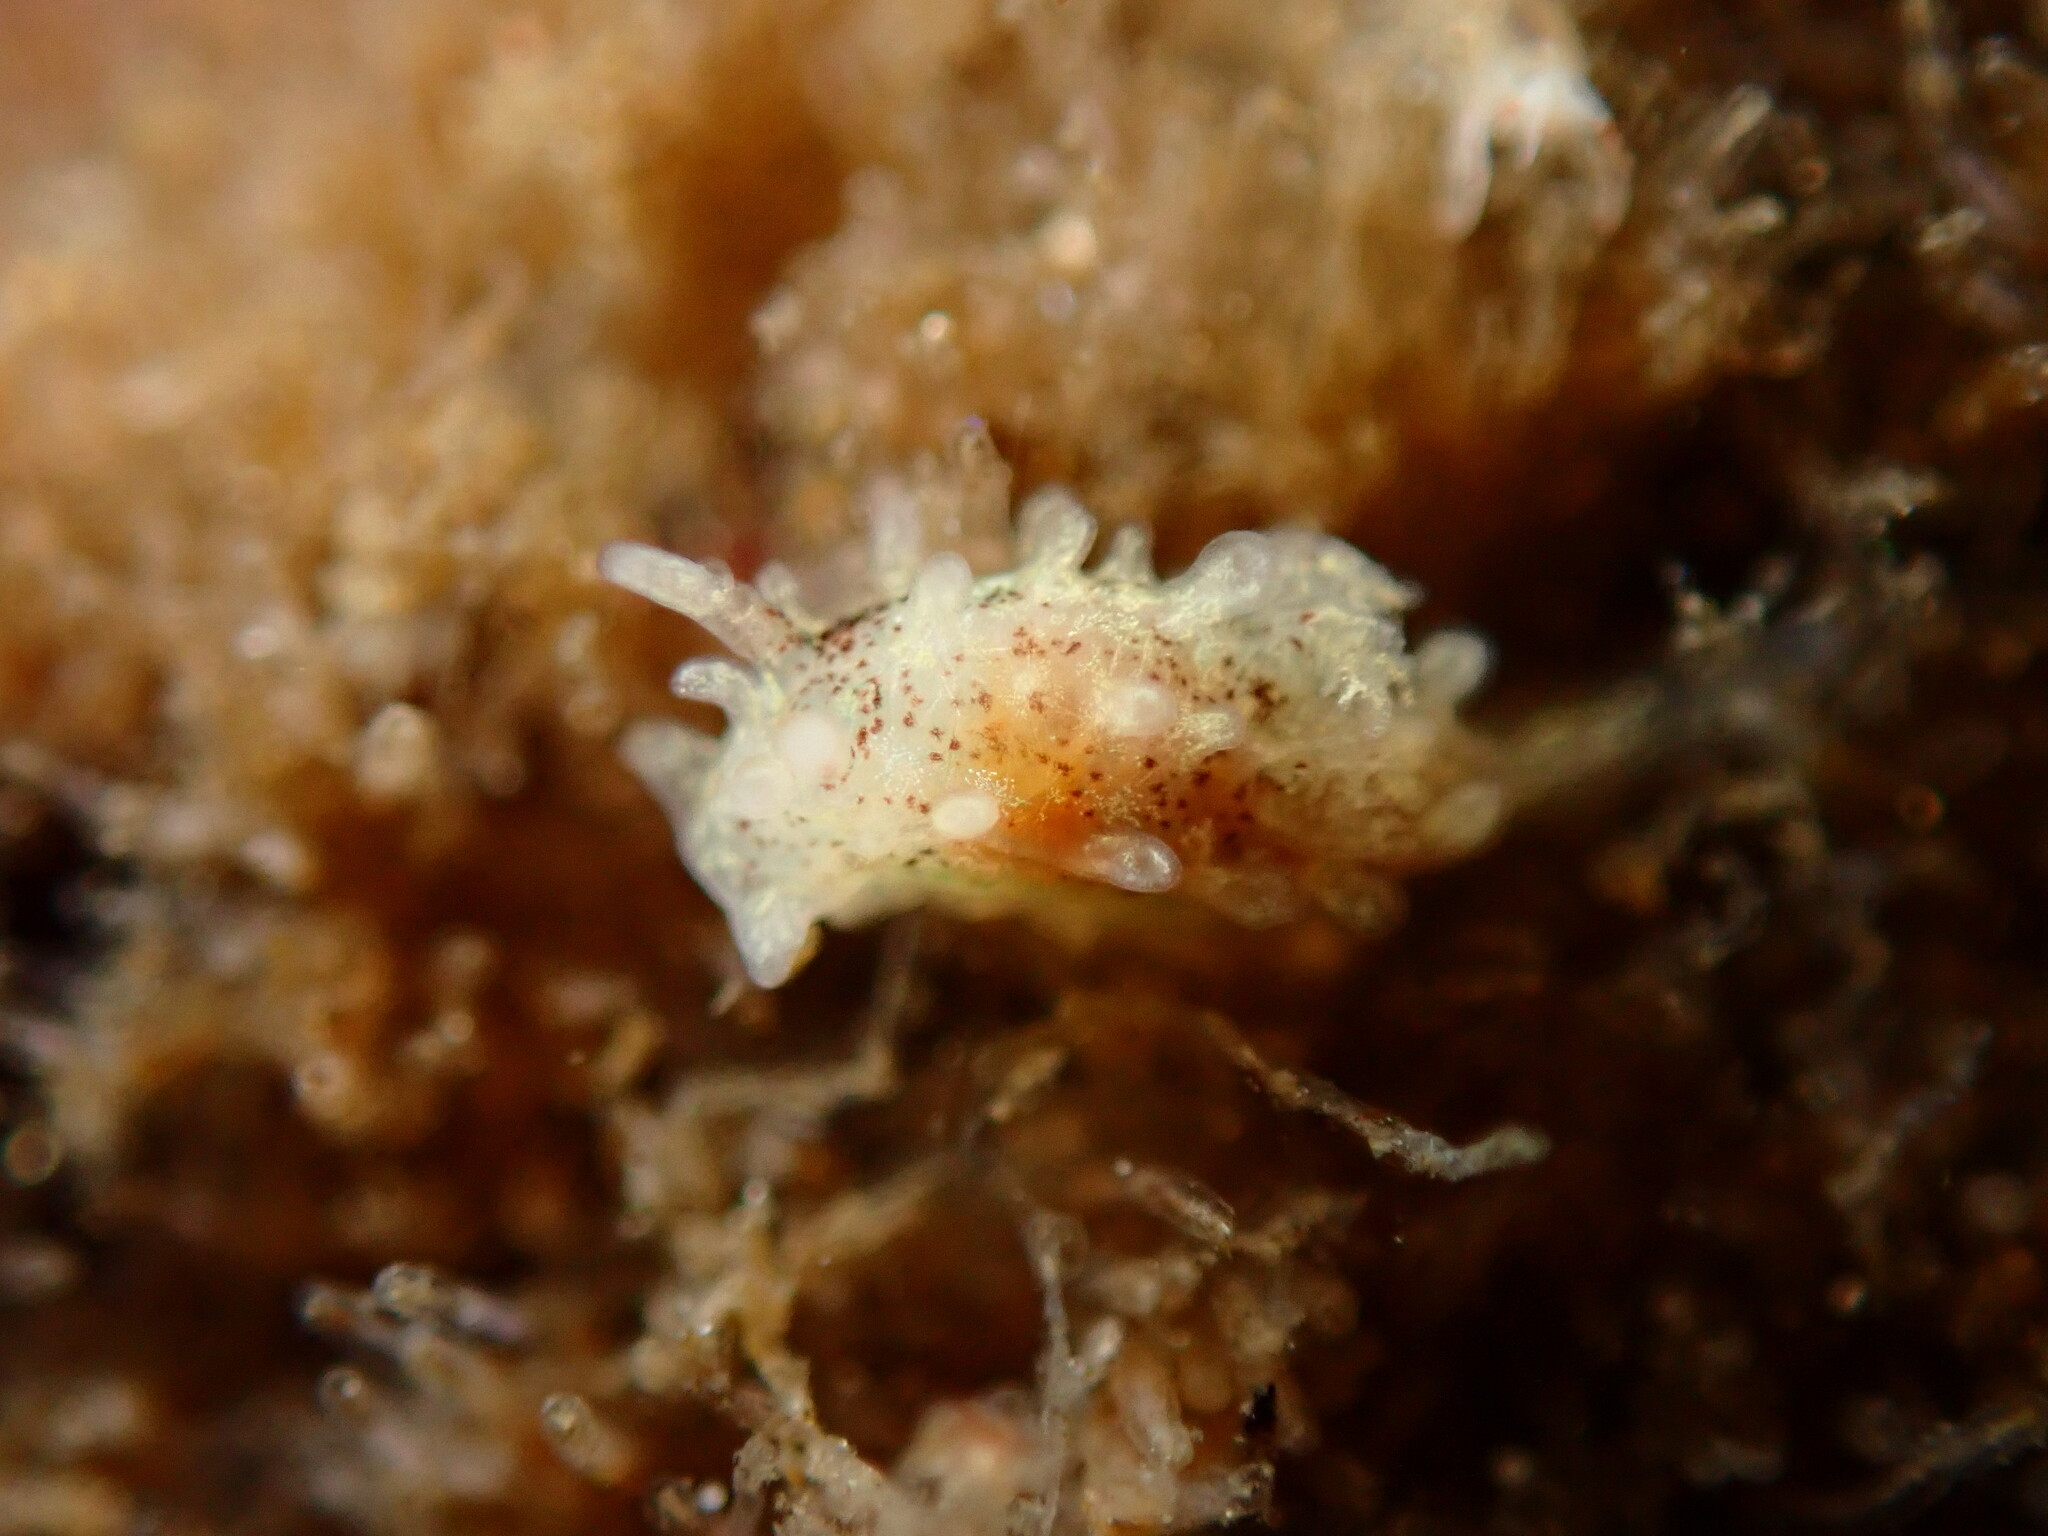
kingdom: Animalia
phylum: Mollusca
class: Gastropoda
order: Nudibranchia
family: Goniodorididae
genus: Okenia
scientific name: Okenia
